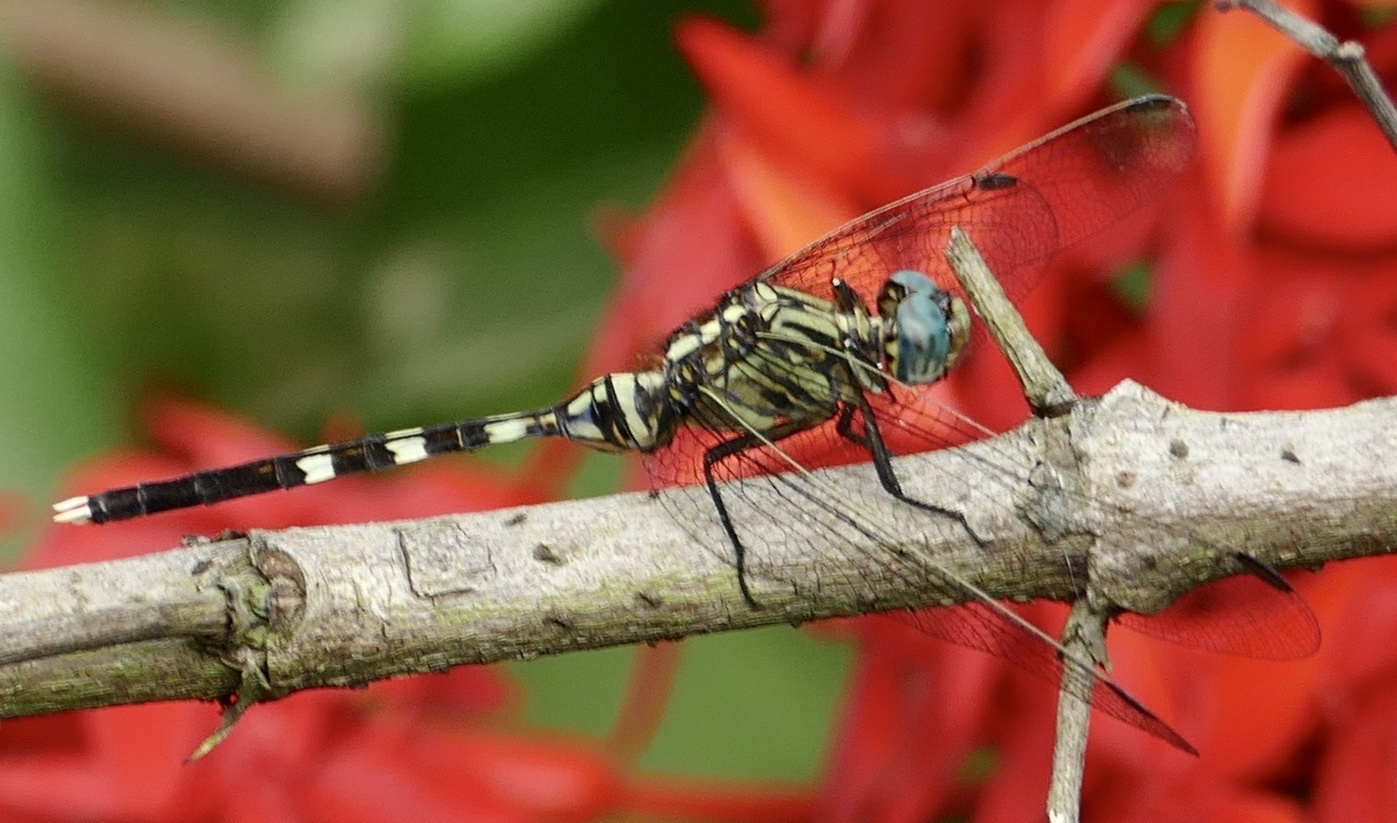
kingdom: Animalia
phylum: Arthropoda
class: Insecta
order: Odonata
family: Libellulidae
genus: Orthetrum
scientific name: Orthetrum stemmale
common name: Bold skimmer
